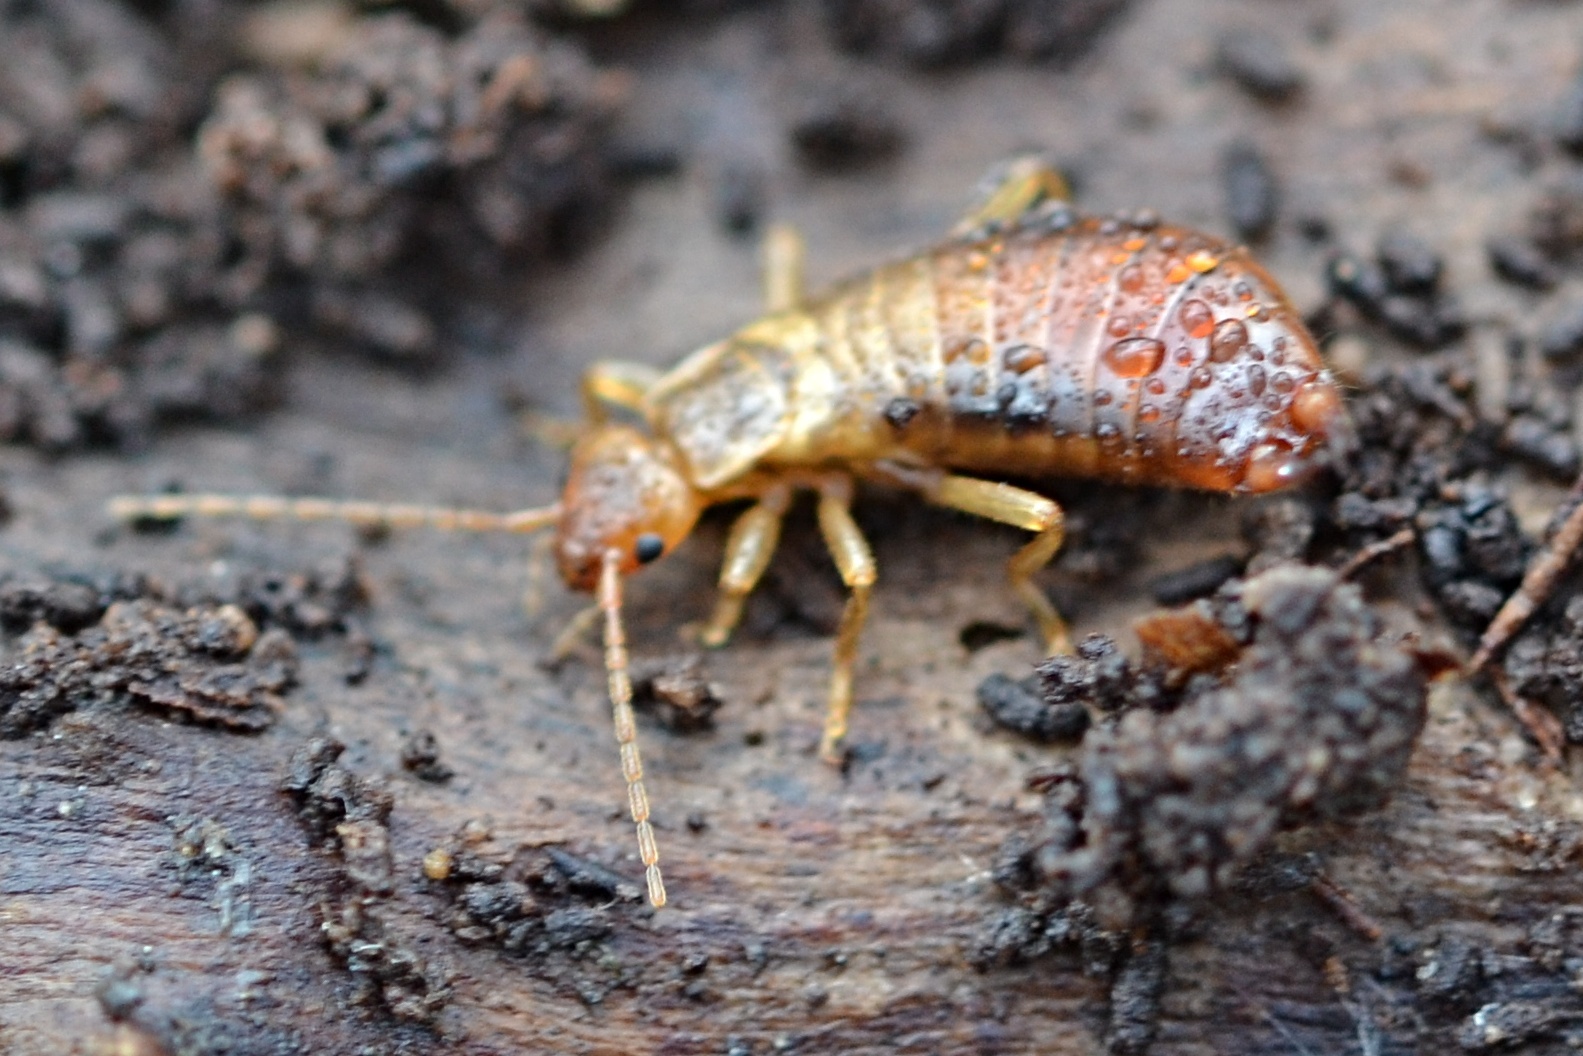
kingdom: Animalia
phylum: Arthropoda
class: Insecta
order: Dermaptera
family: Forficulidae
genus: Chelidurella
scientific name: Chelidurella acanthopygia
